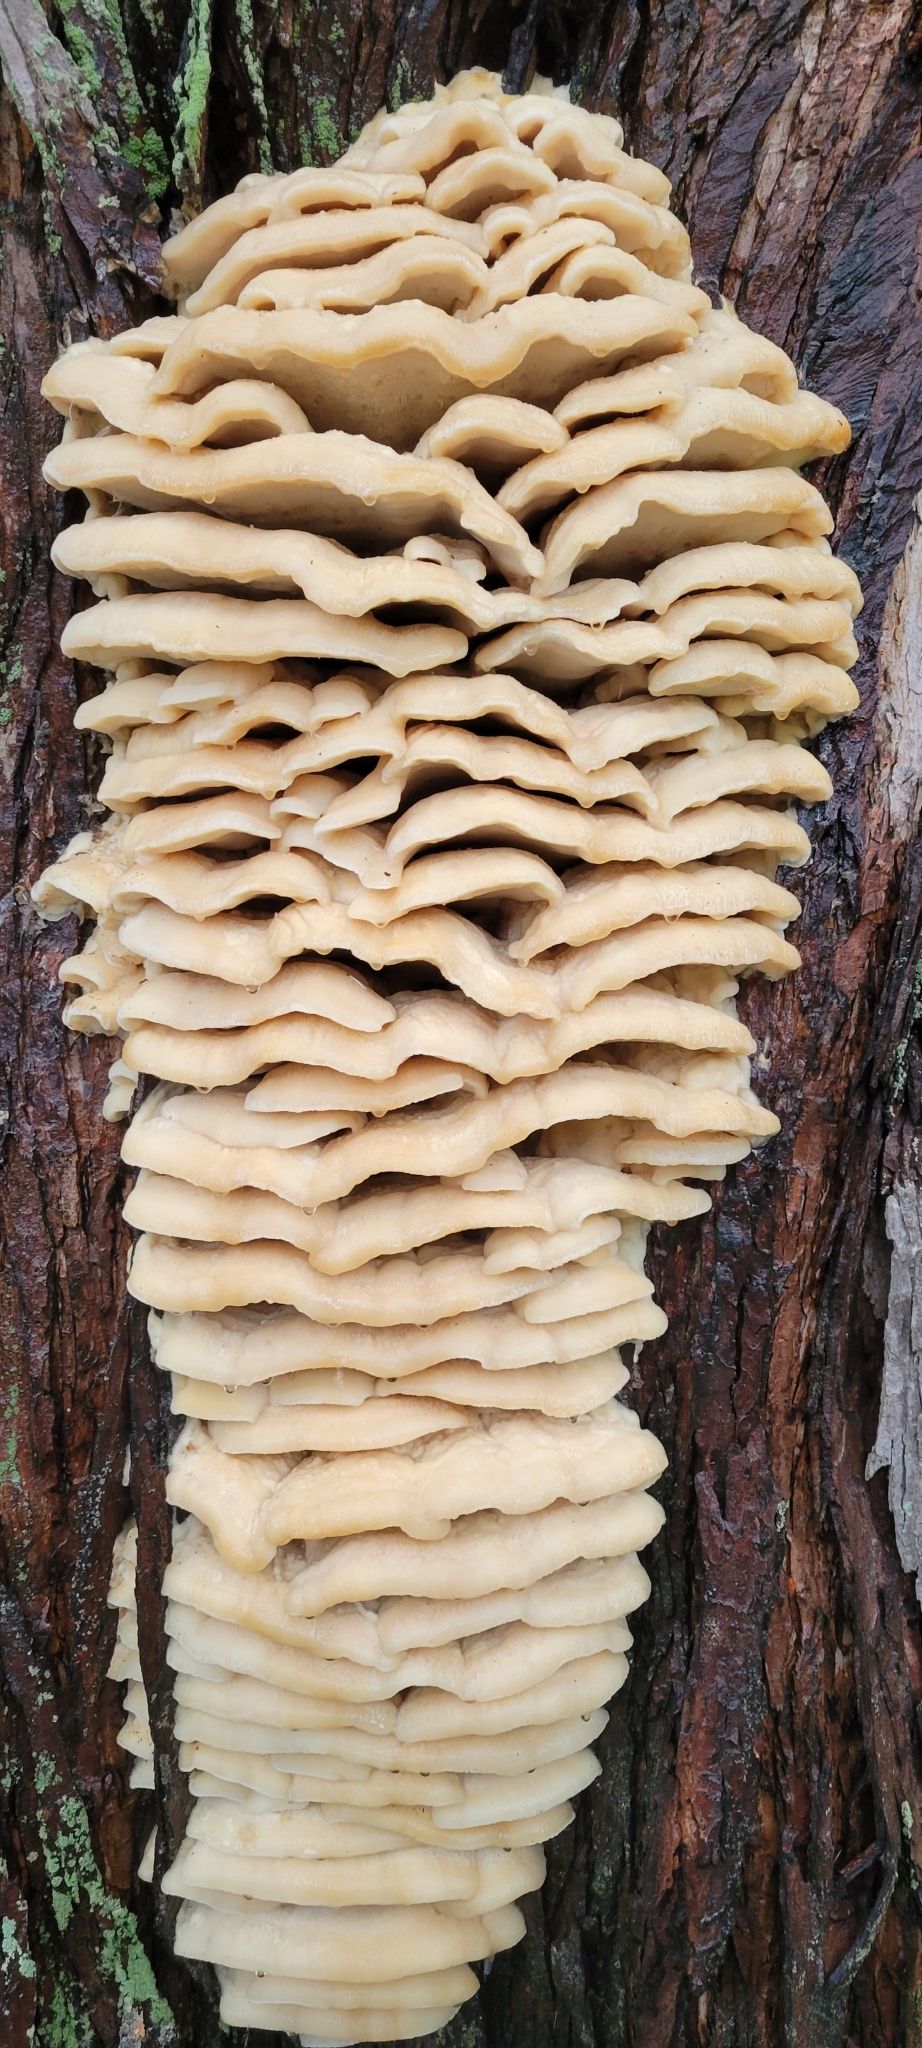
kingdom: Fungi
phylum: Basidiomycota
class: Agaricomycetes
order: Polyporales
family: Meruliaceae
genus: Climacodon
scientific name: Climacodon septentrionalis
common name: Northern tooth
